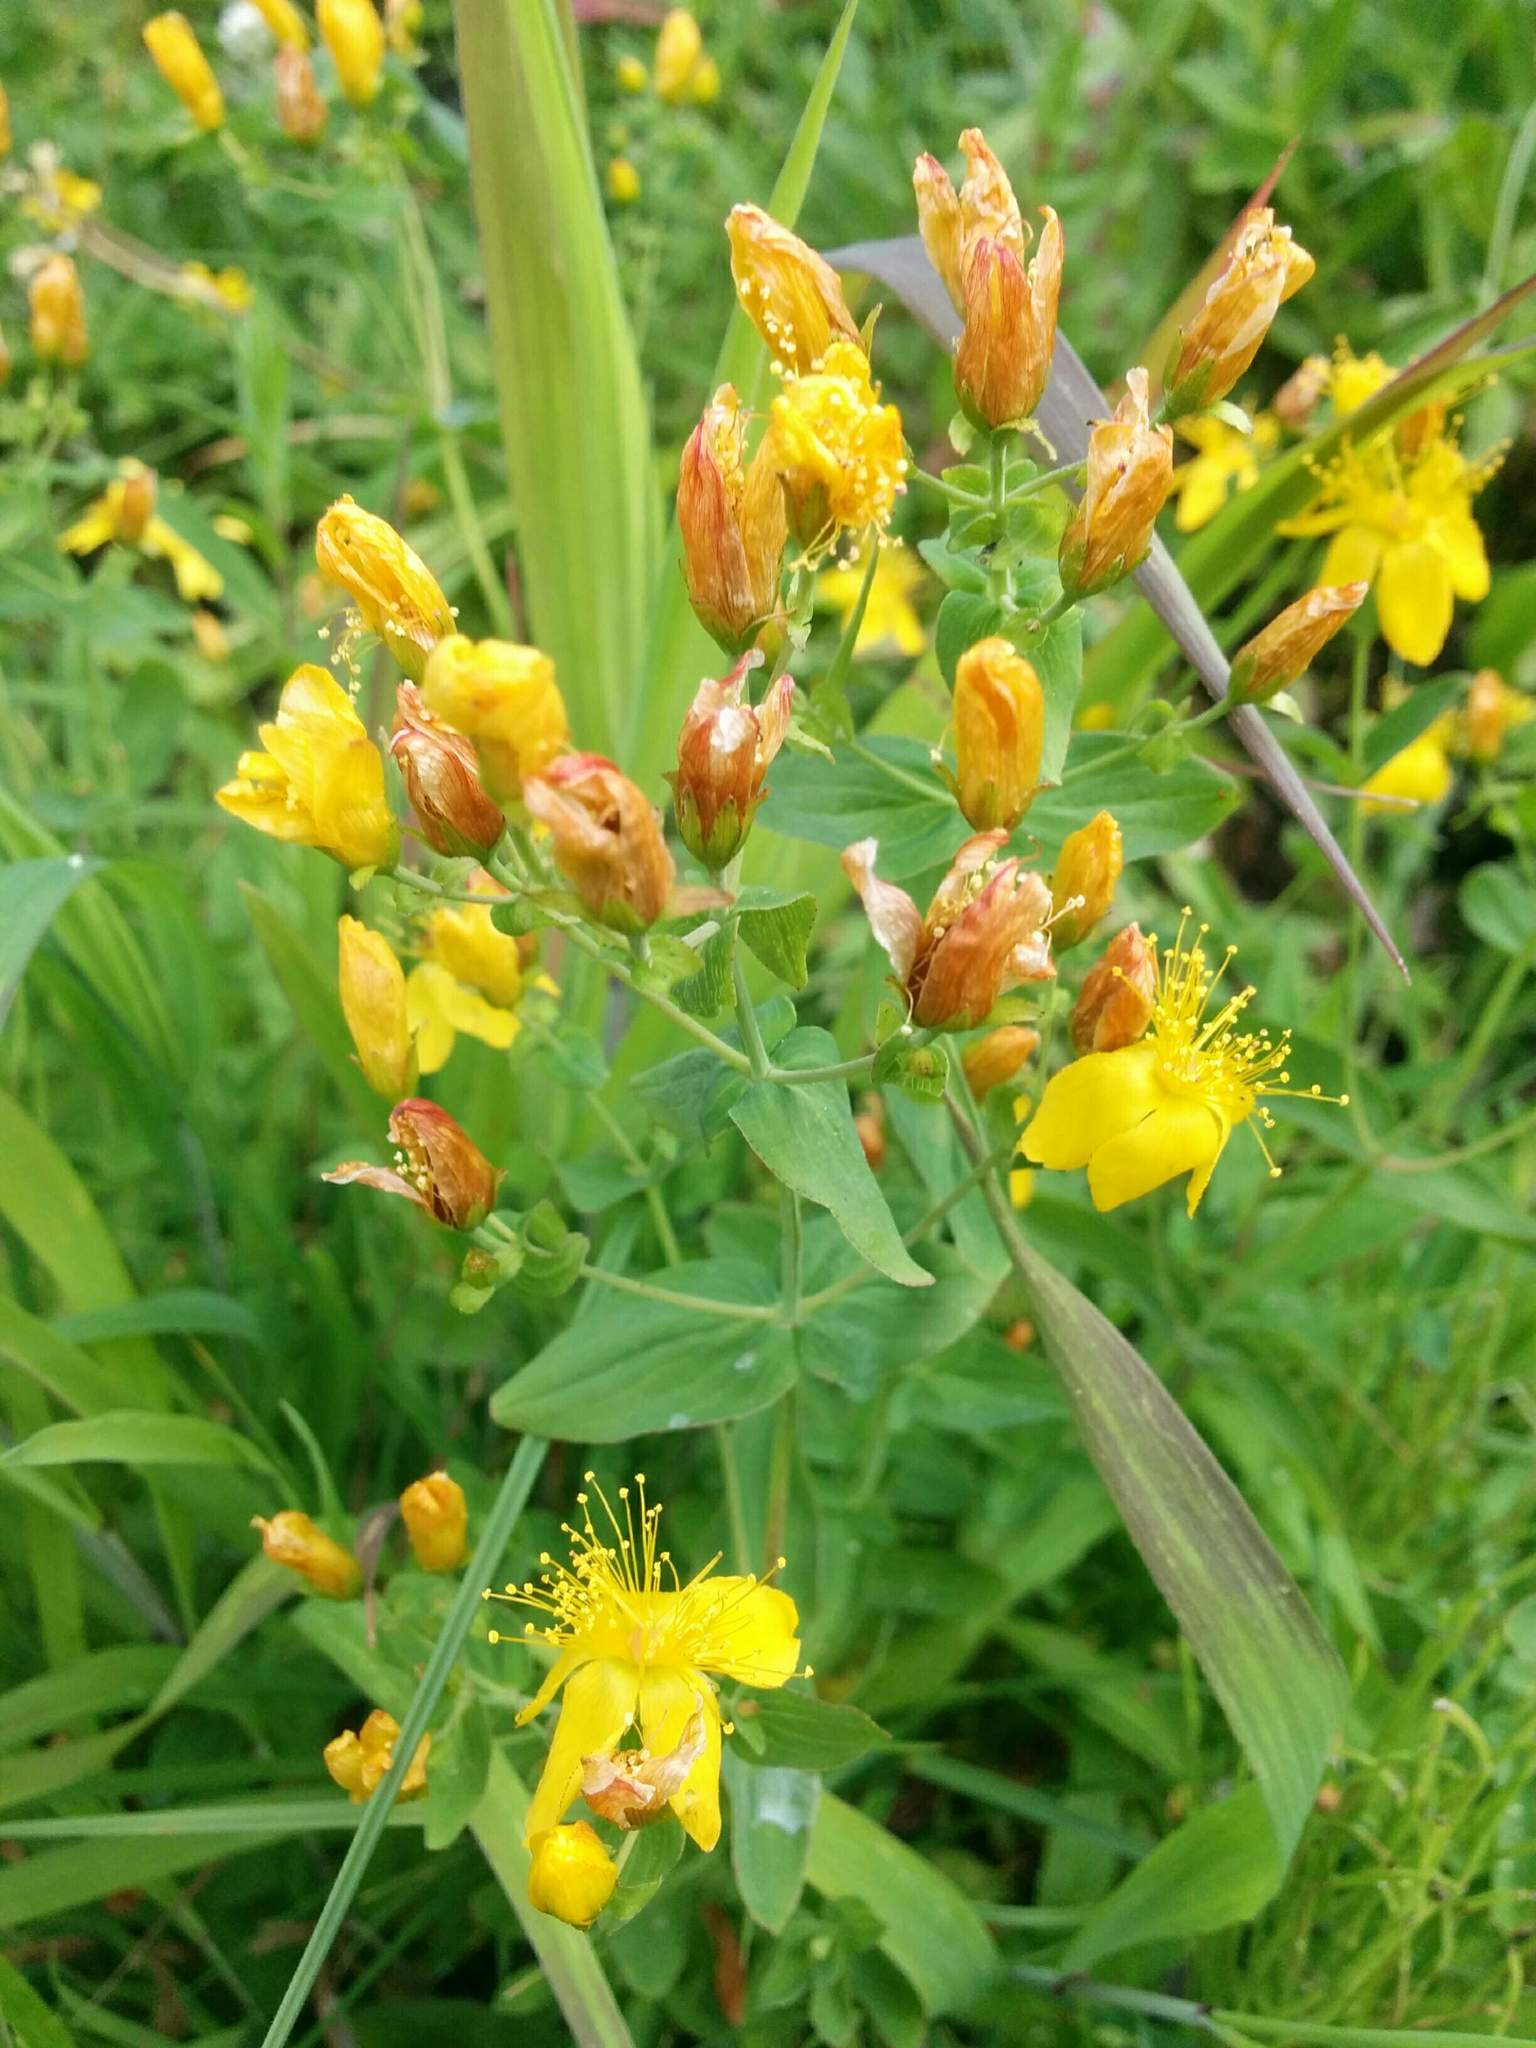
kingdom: Plantae
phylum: Tracheophyta
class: Magnoliopsida
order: Malpighiales
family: Hypericaceae
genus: Hypericum
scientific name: Hypericum scouleri
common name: Scouler's st. john's-wort
